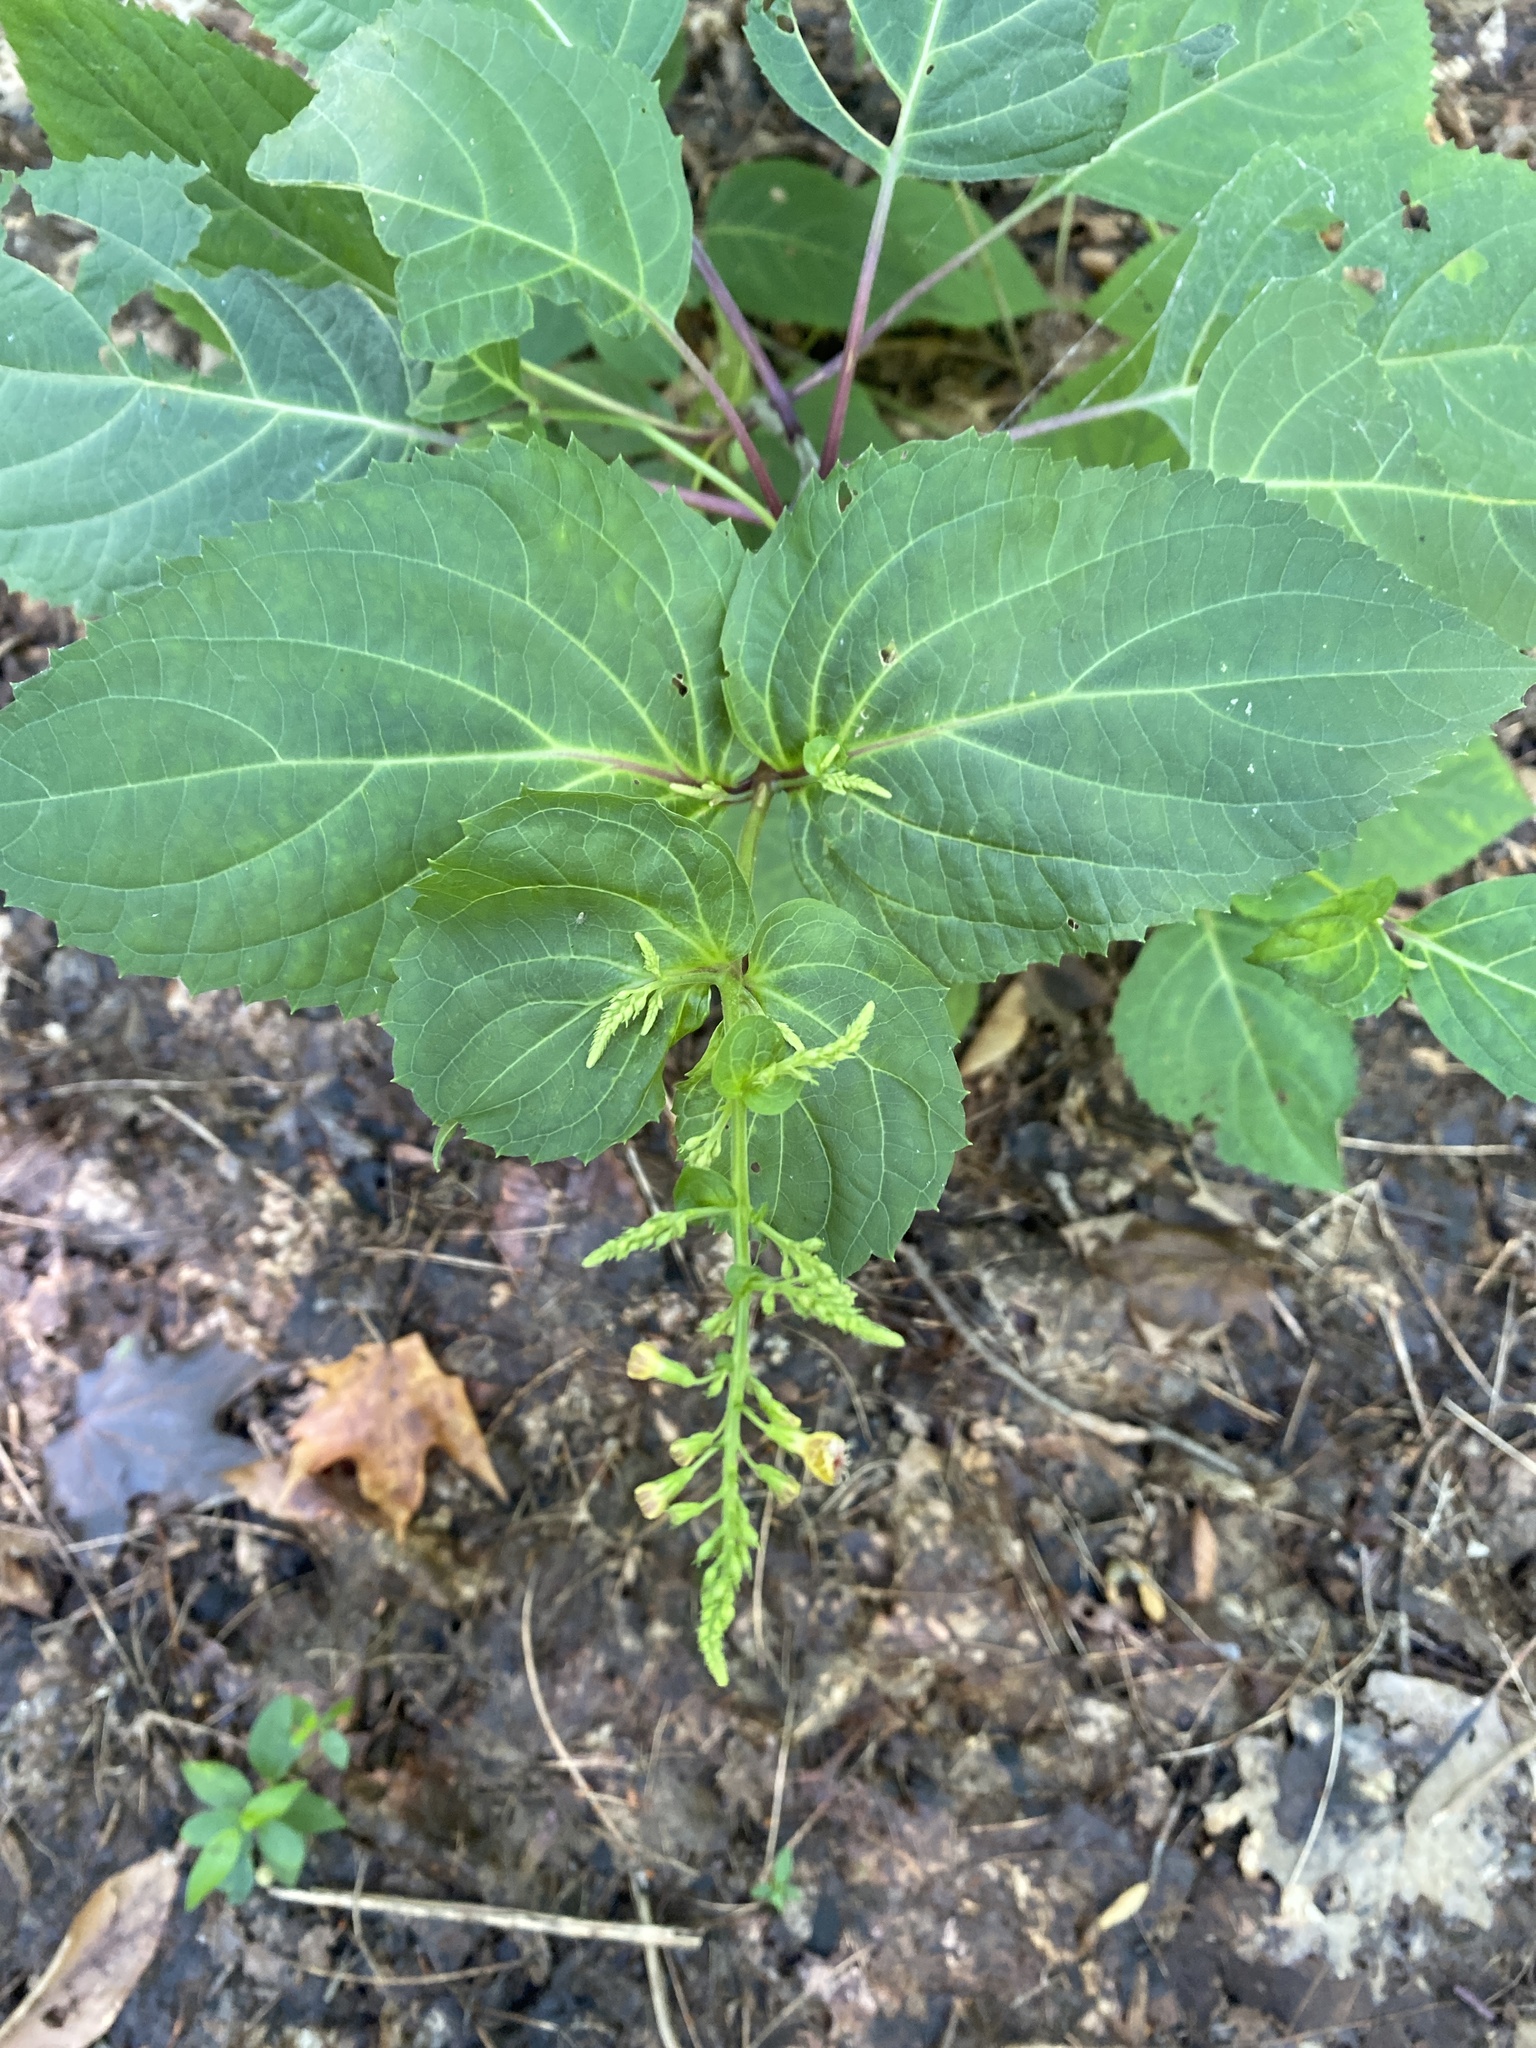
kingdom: Plantae
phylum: Tracheophyta
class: Magnoliopsida
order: Lamiales
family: Lamiaceae
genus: Collinsonia
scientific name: Collinsonia canadensis
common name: Northern horsebalm
